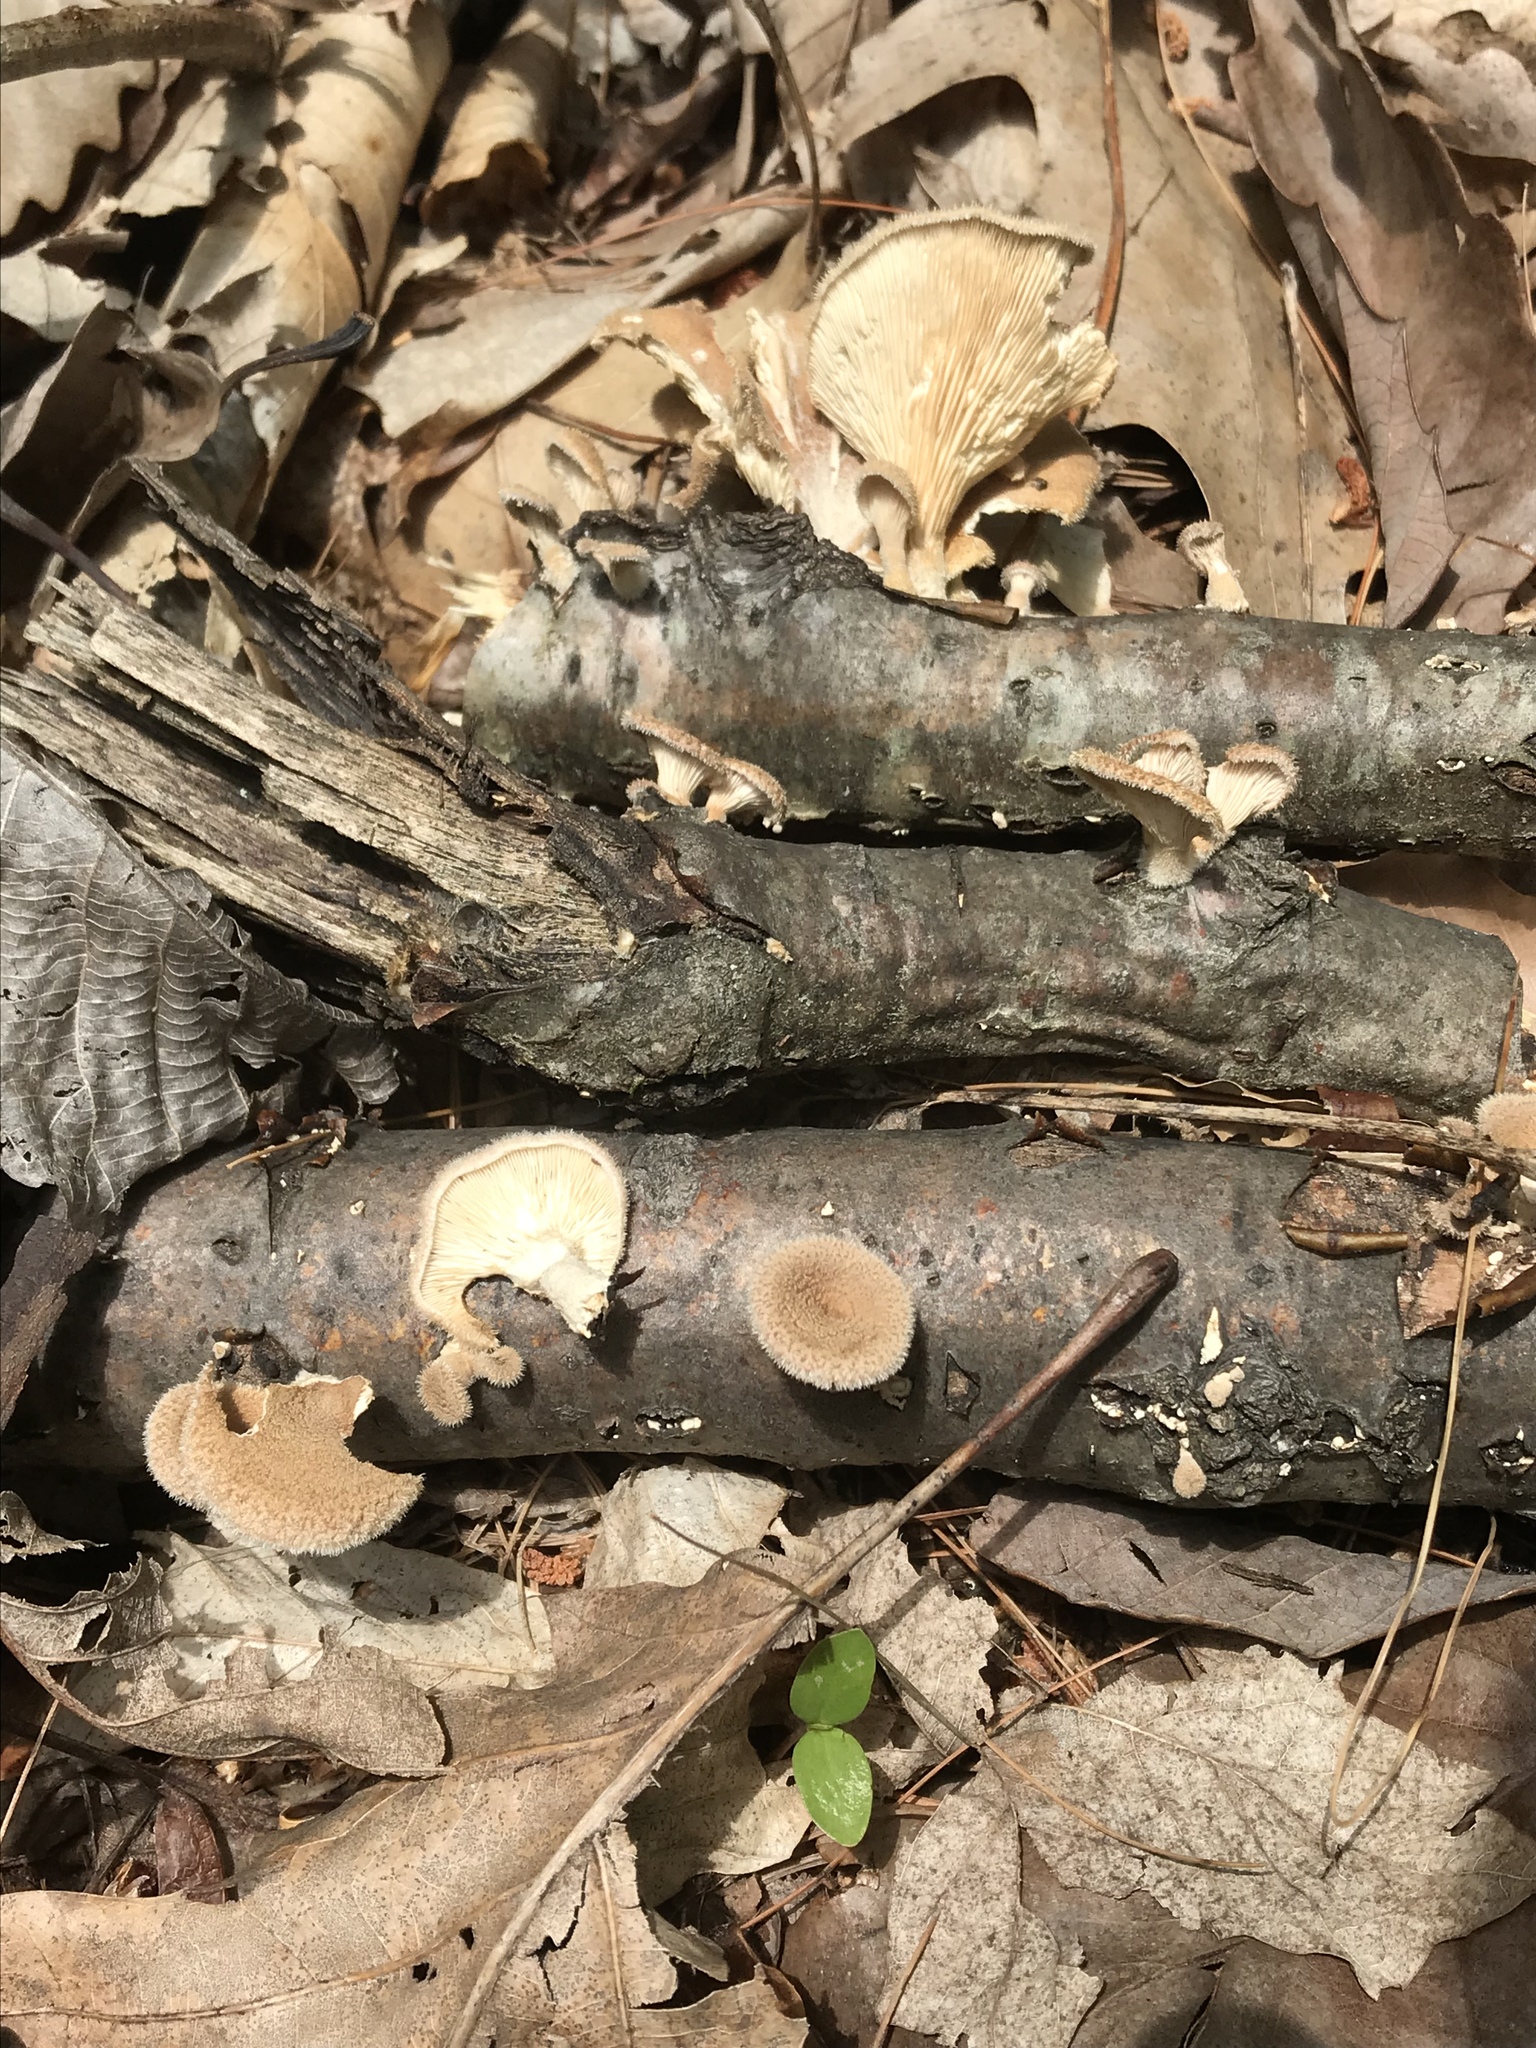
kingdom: Fungi
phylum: Basidiomycota
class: Agaricomycetes
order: Polyporales
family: Panaceae
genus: Panus
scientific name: Panus neostrigosus
